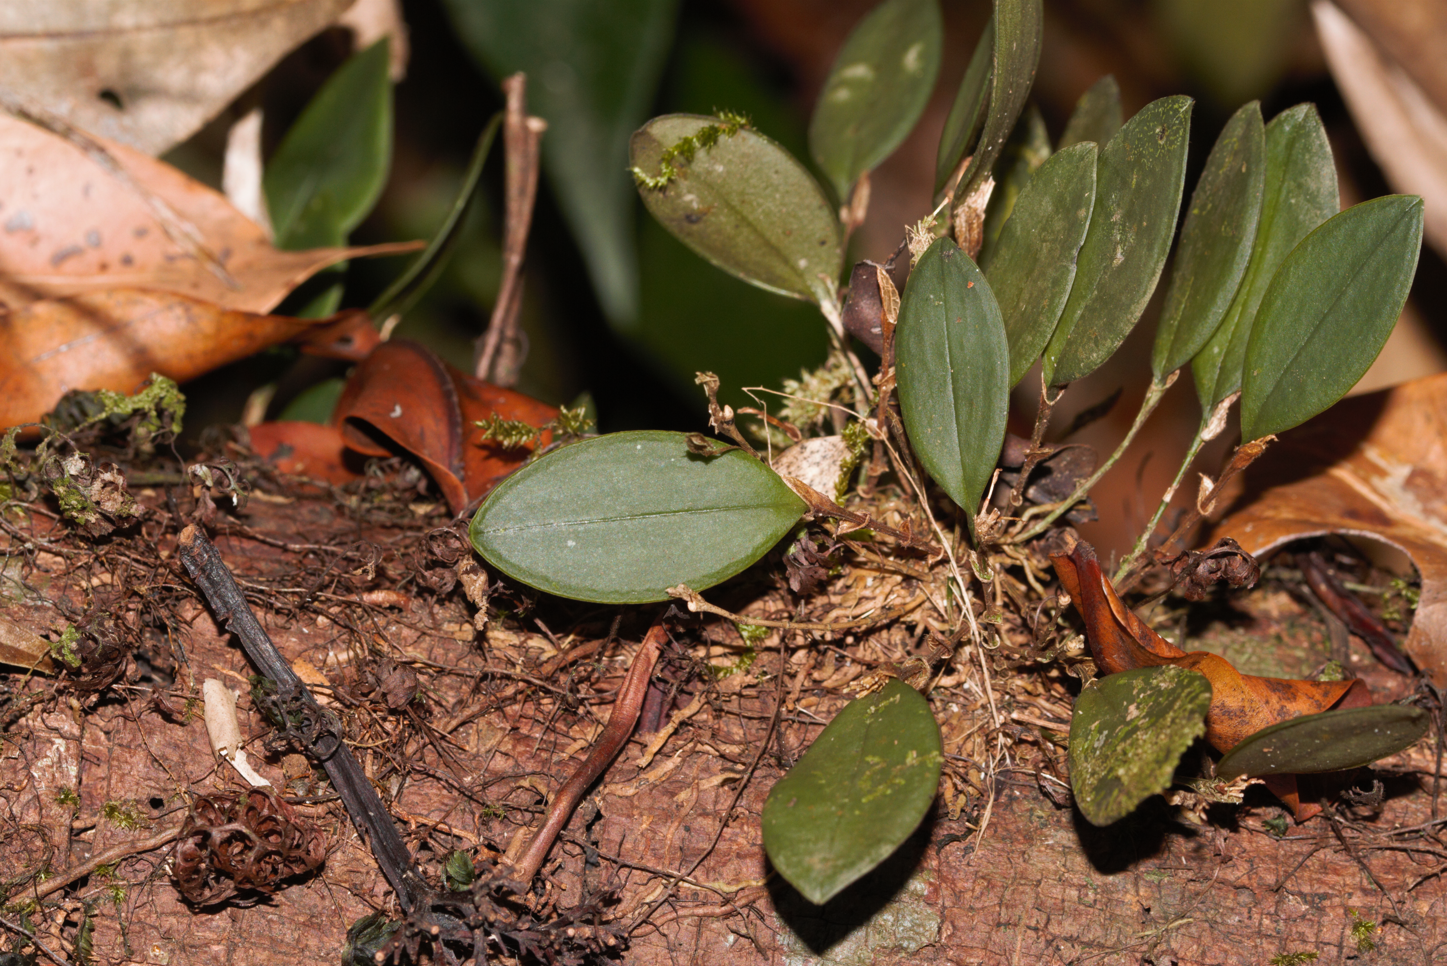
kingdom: Plantae
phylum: Tracheophyta
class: Liliopsida
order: Asparagales
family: Orchidaceae
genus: Trichosalpinx
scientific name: Trichosalpinx orbicularis
